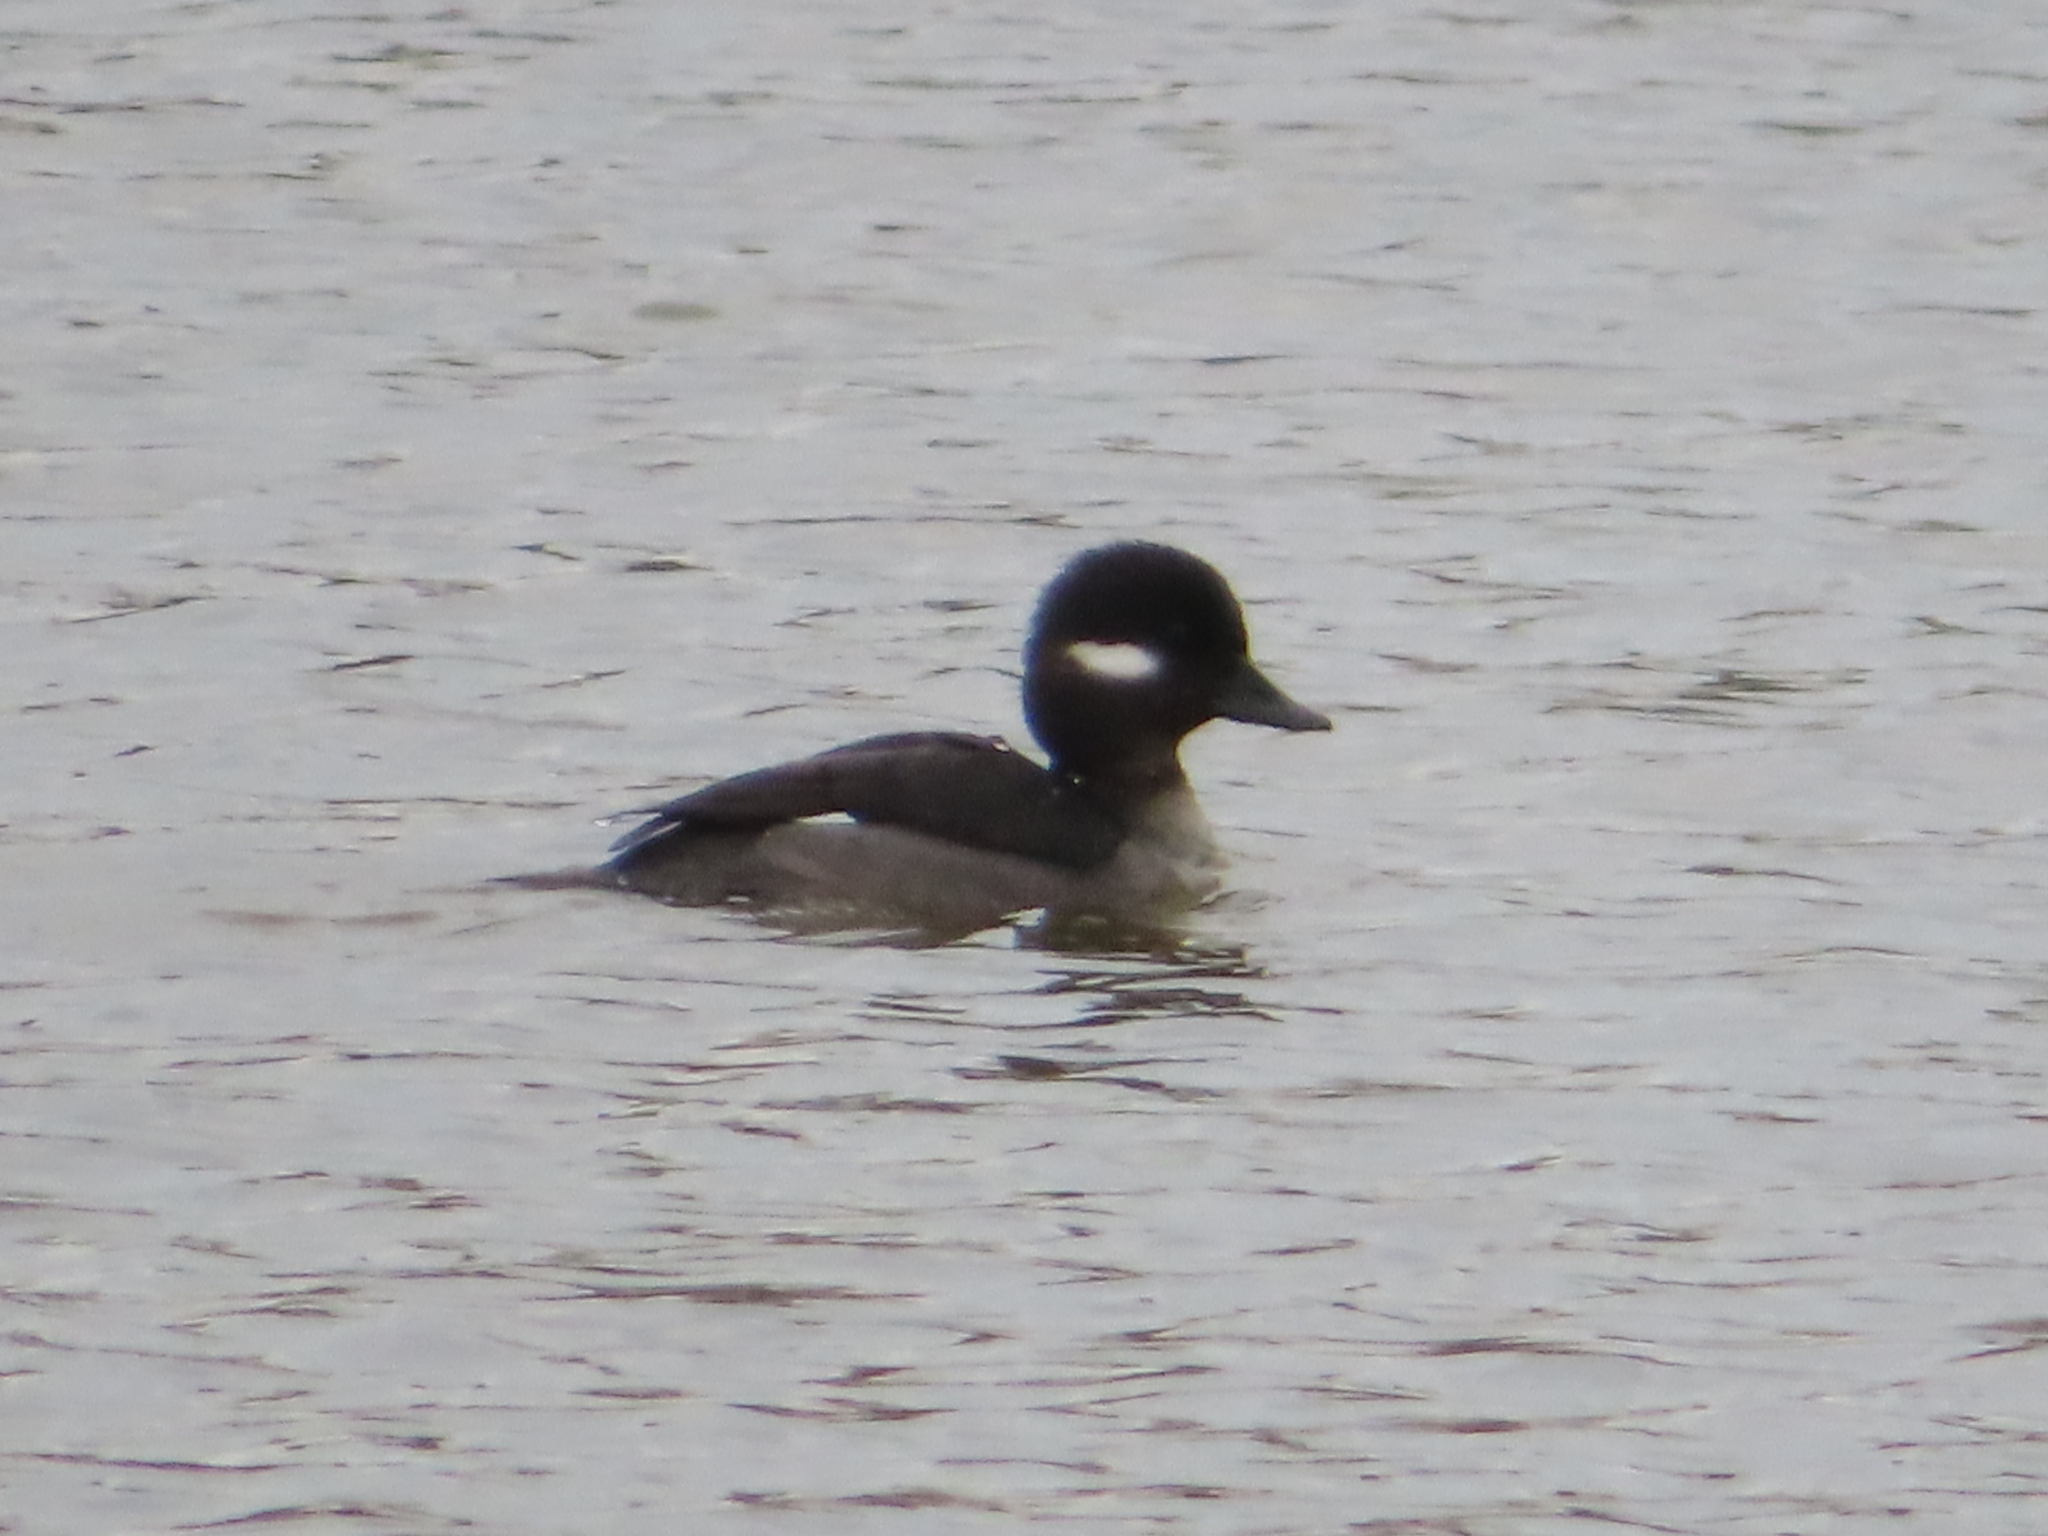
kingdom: Animalia
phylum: Chordata
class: Aves
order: Anseriformes
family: Anatidae
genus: Bucephala
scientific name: Bucephala albeola
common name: Bufflehead
